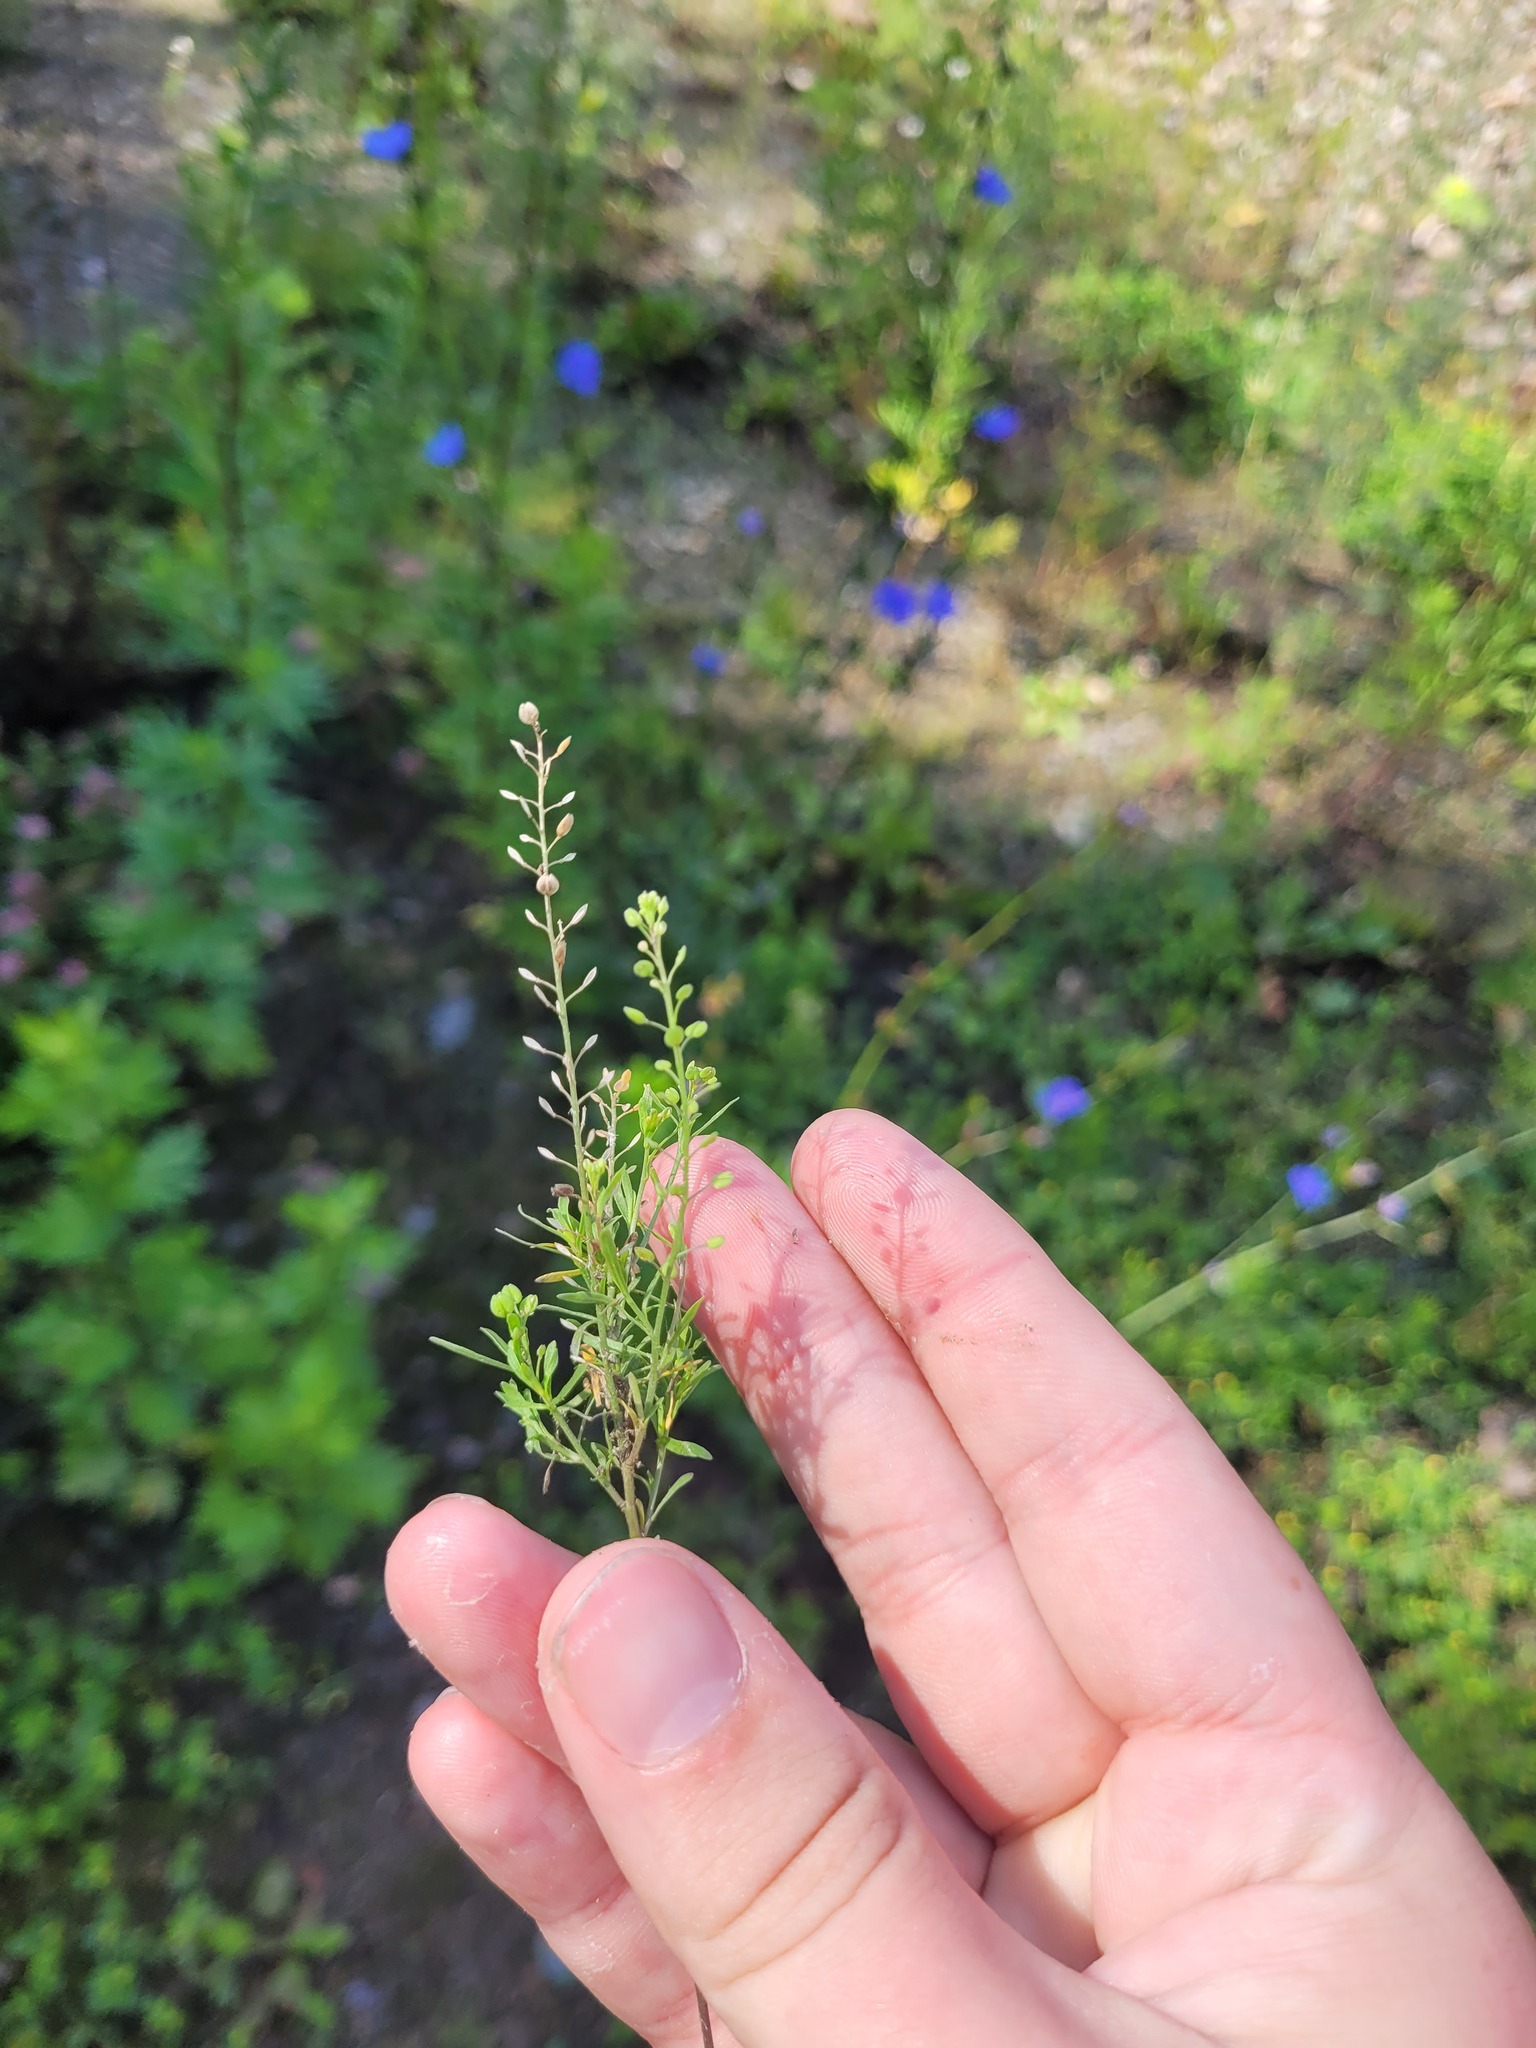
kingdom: Plantae
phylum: Tracheophyta
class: Magnoliopsida
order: Brassicales
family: Brassicaceae
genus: Lepidium
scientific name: Lepidium ruderale
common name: Narrow-leaved pepperwort
